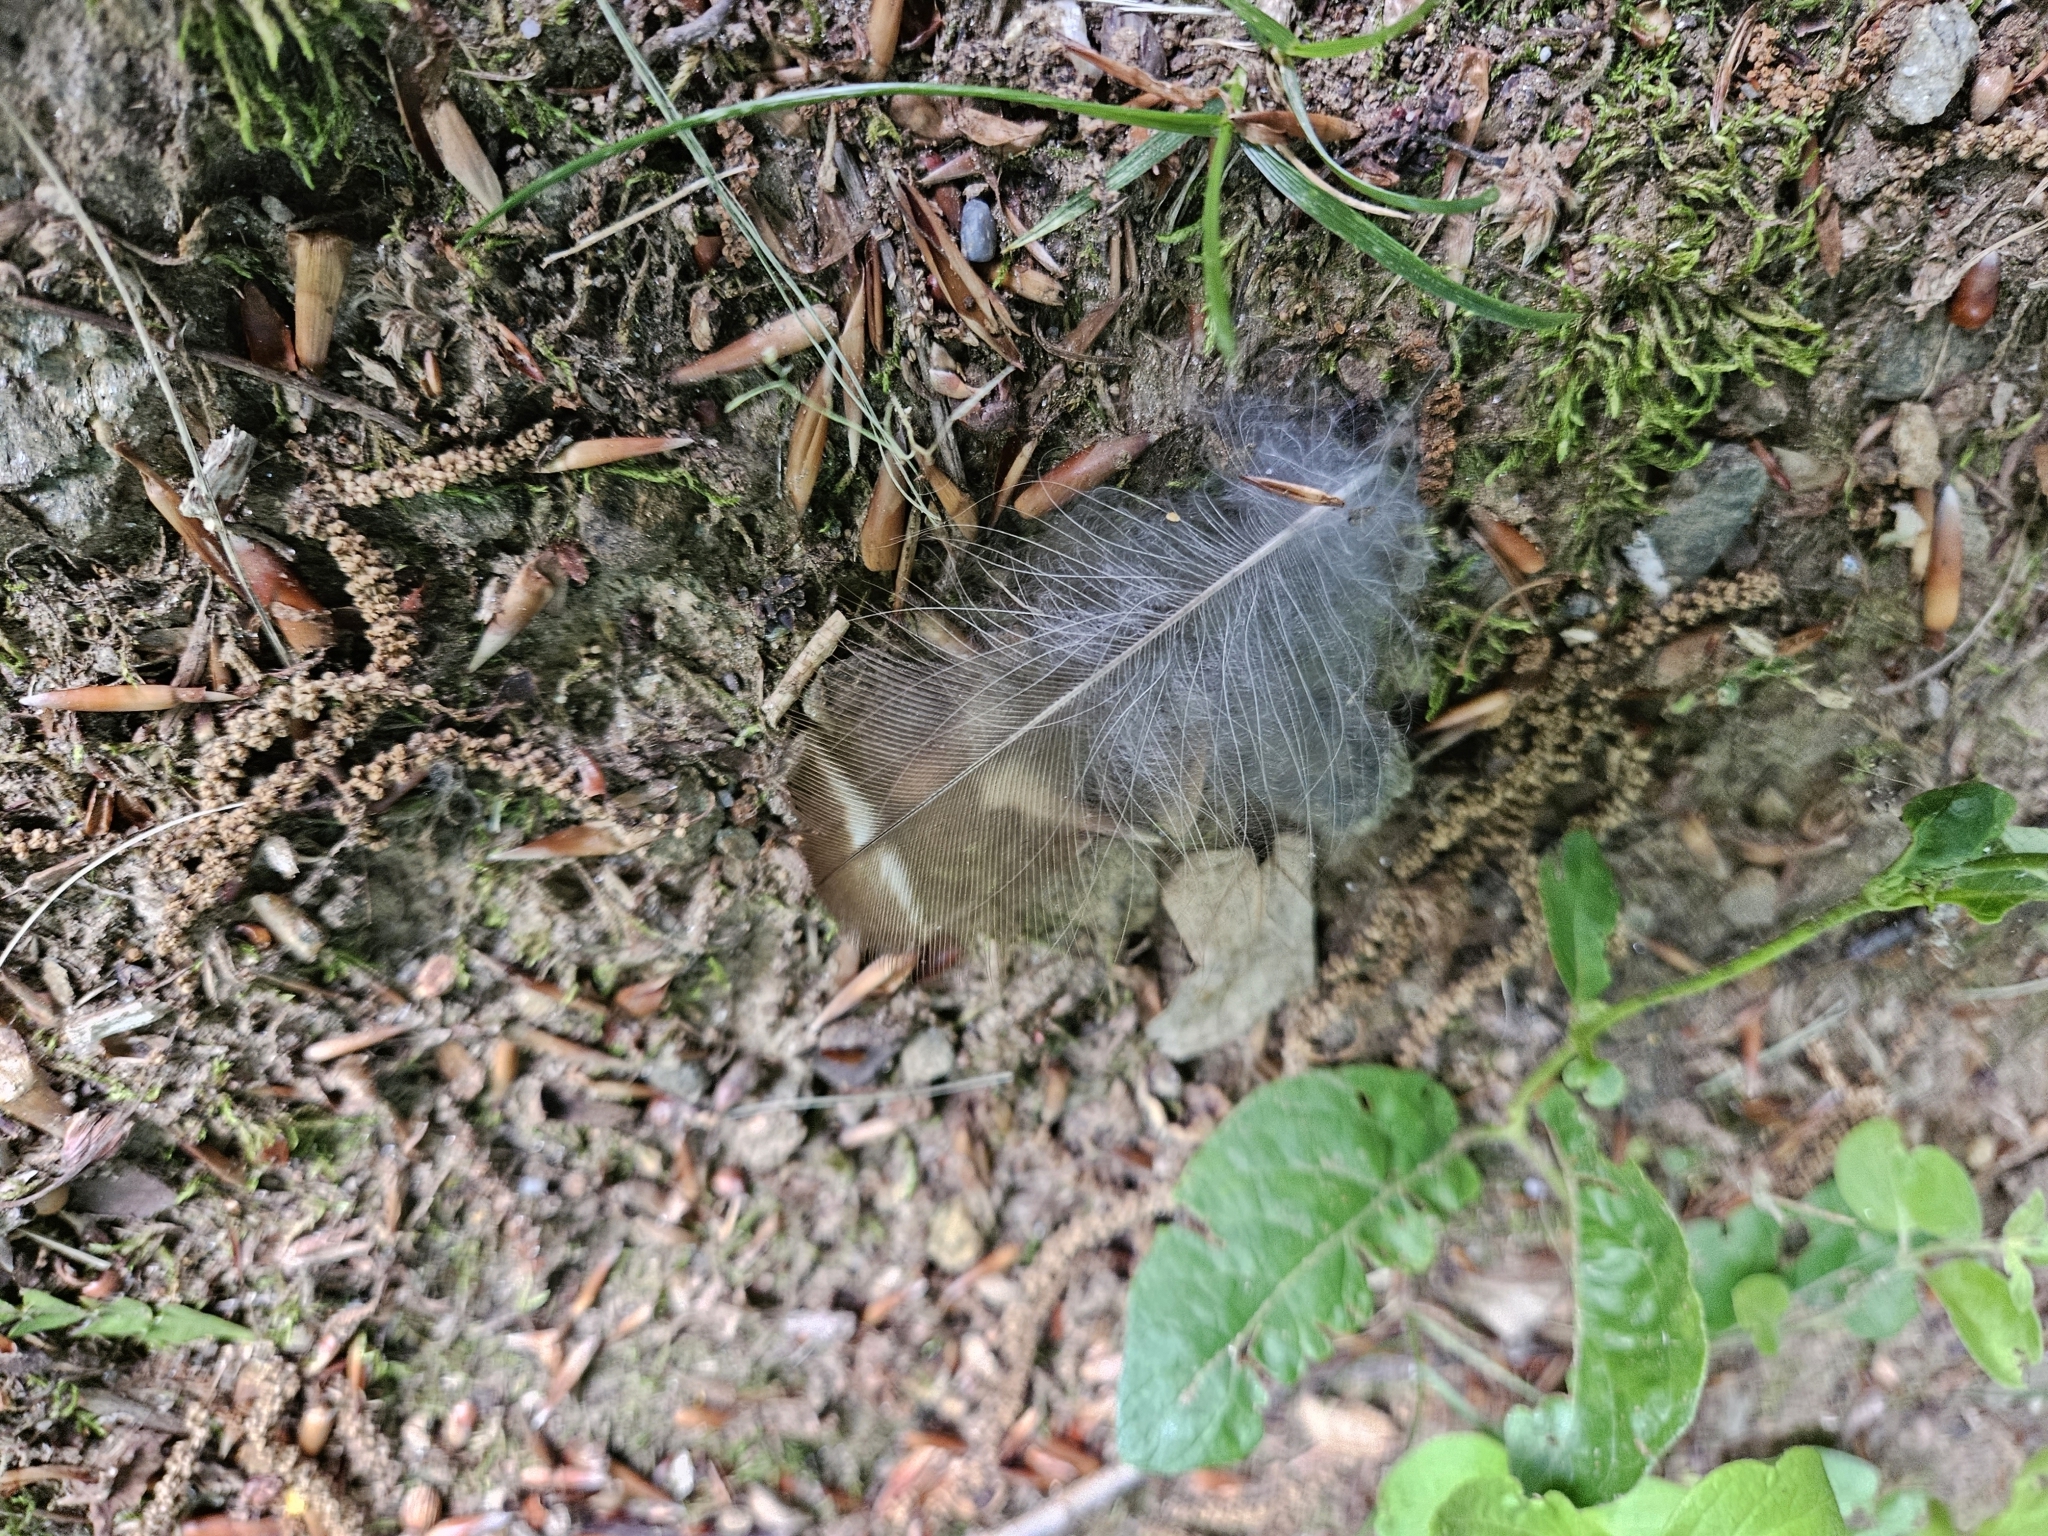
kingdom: Animalia
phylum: Chordata
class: Aves
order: Strigiformes
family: Strigidae
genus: Strix
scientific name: Strix varia
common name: Barred owl
